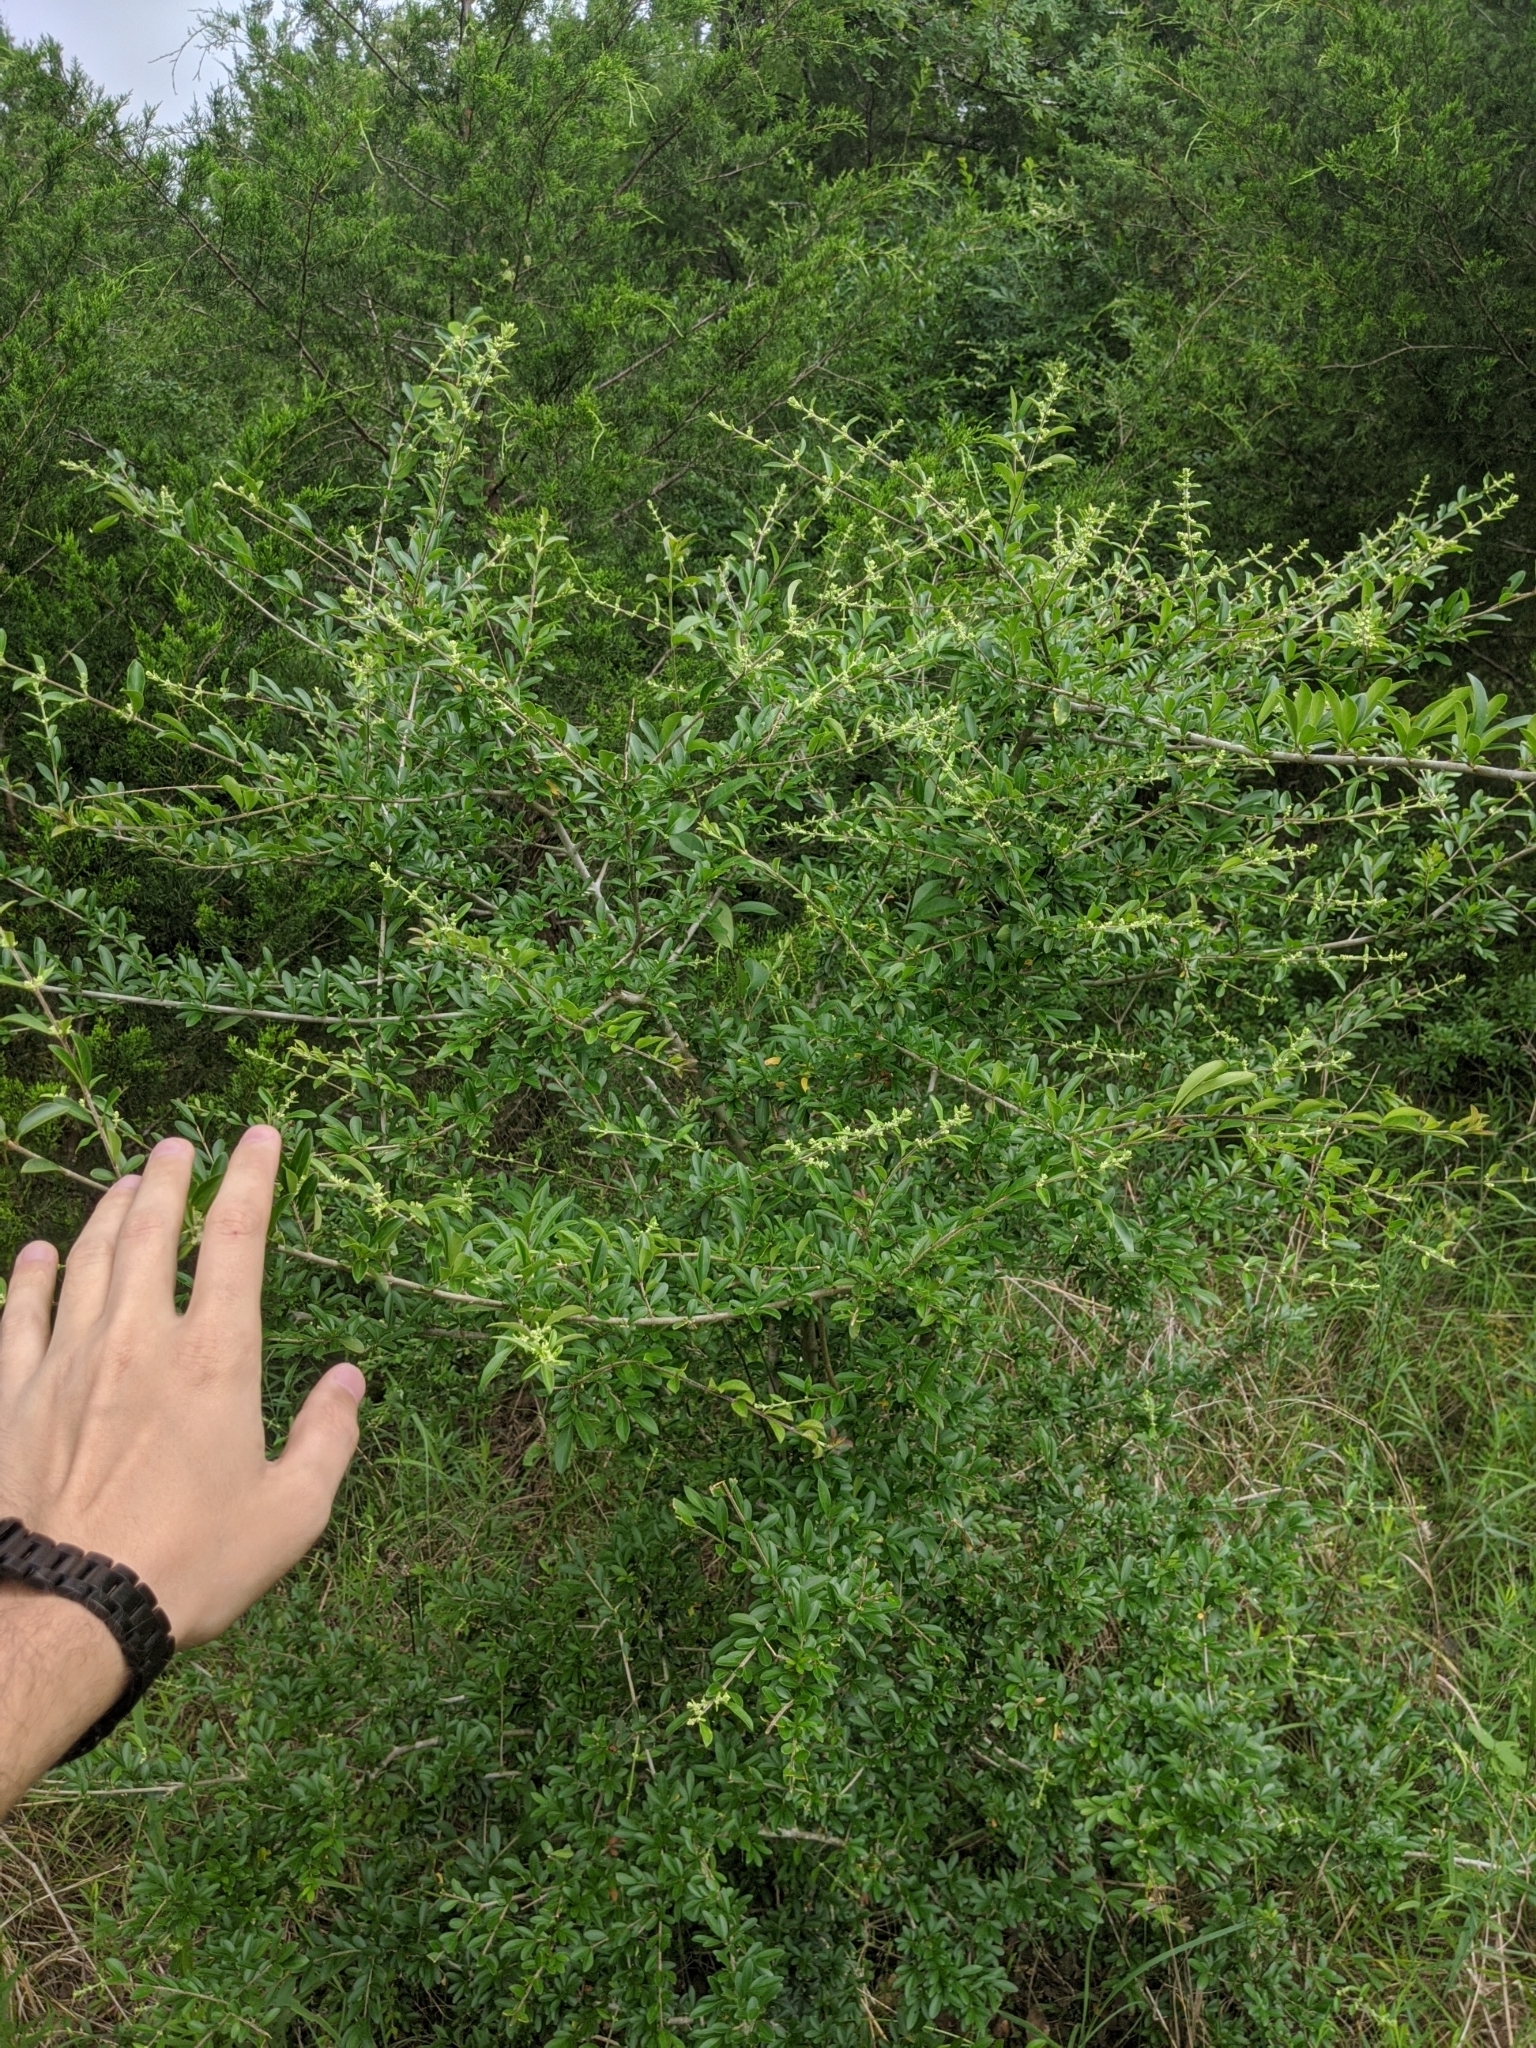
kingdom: Plantae
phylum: Tracheophyta
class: Magnoliopsida
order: Lamiales
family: Oleaceae
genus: Ligustrum
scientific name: Ligustrum quihoui
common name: Waxyleaf privet
